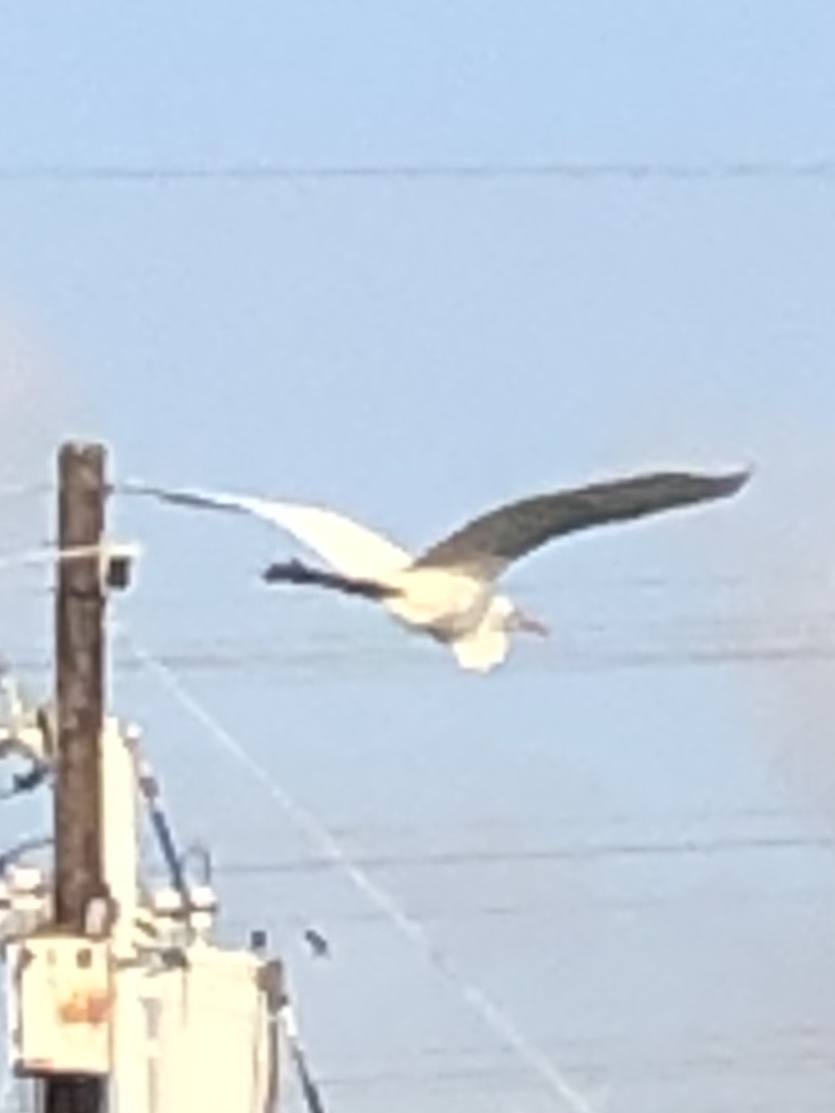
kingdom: Animalia
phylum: Chordata
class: Aves
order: Pelecaniformes
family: Ardeidae
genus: Ardea
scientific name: Ardea alba
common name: Great egret
